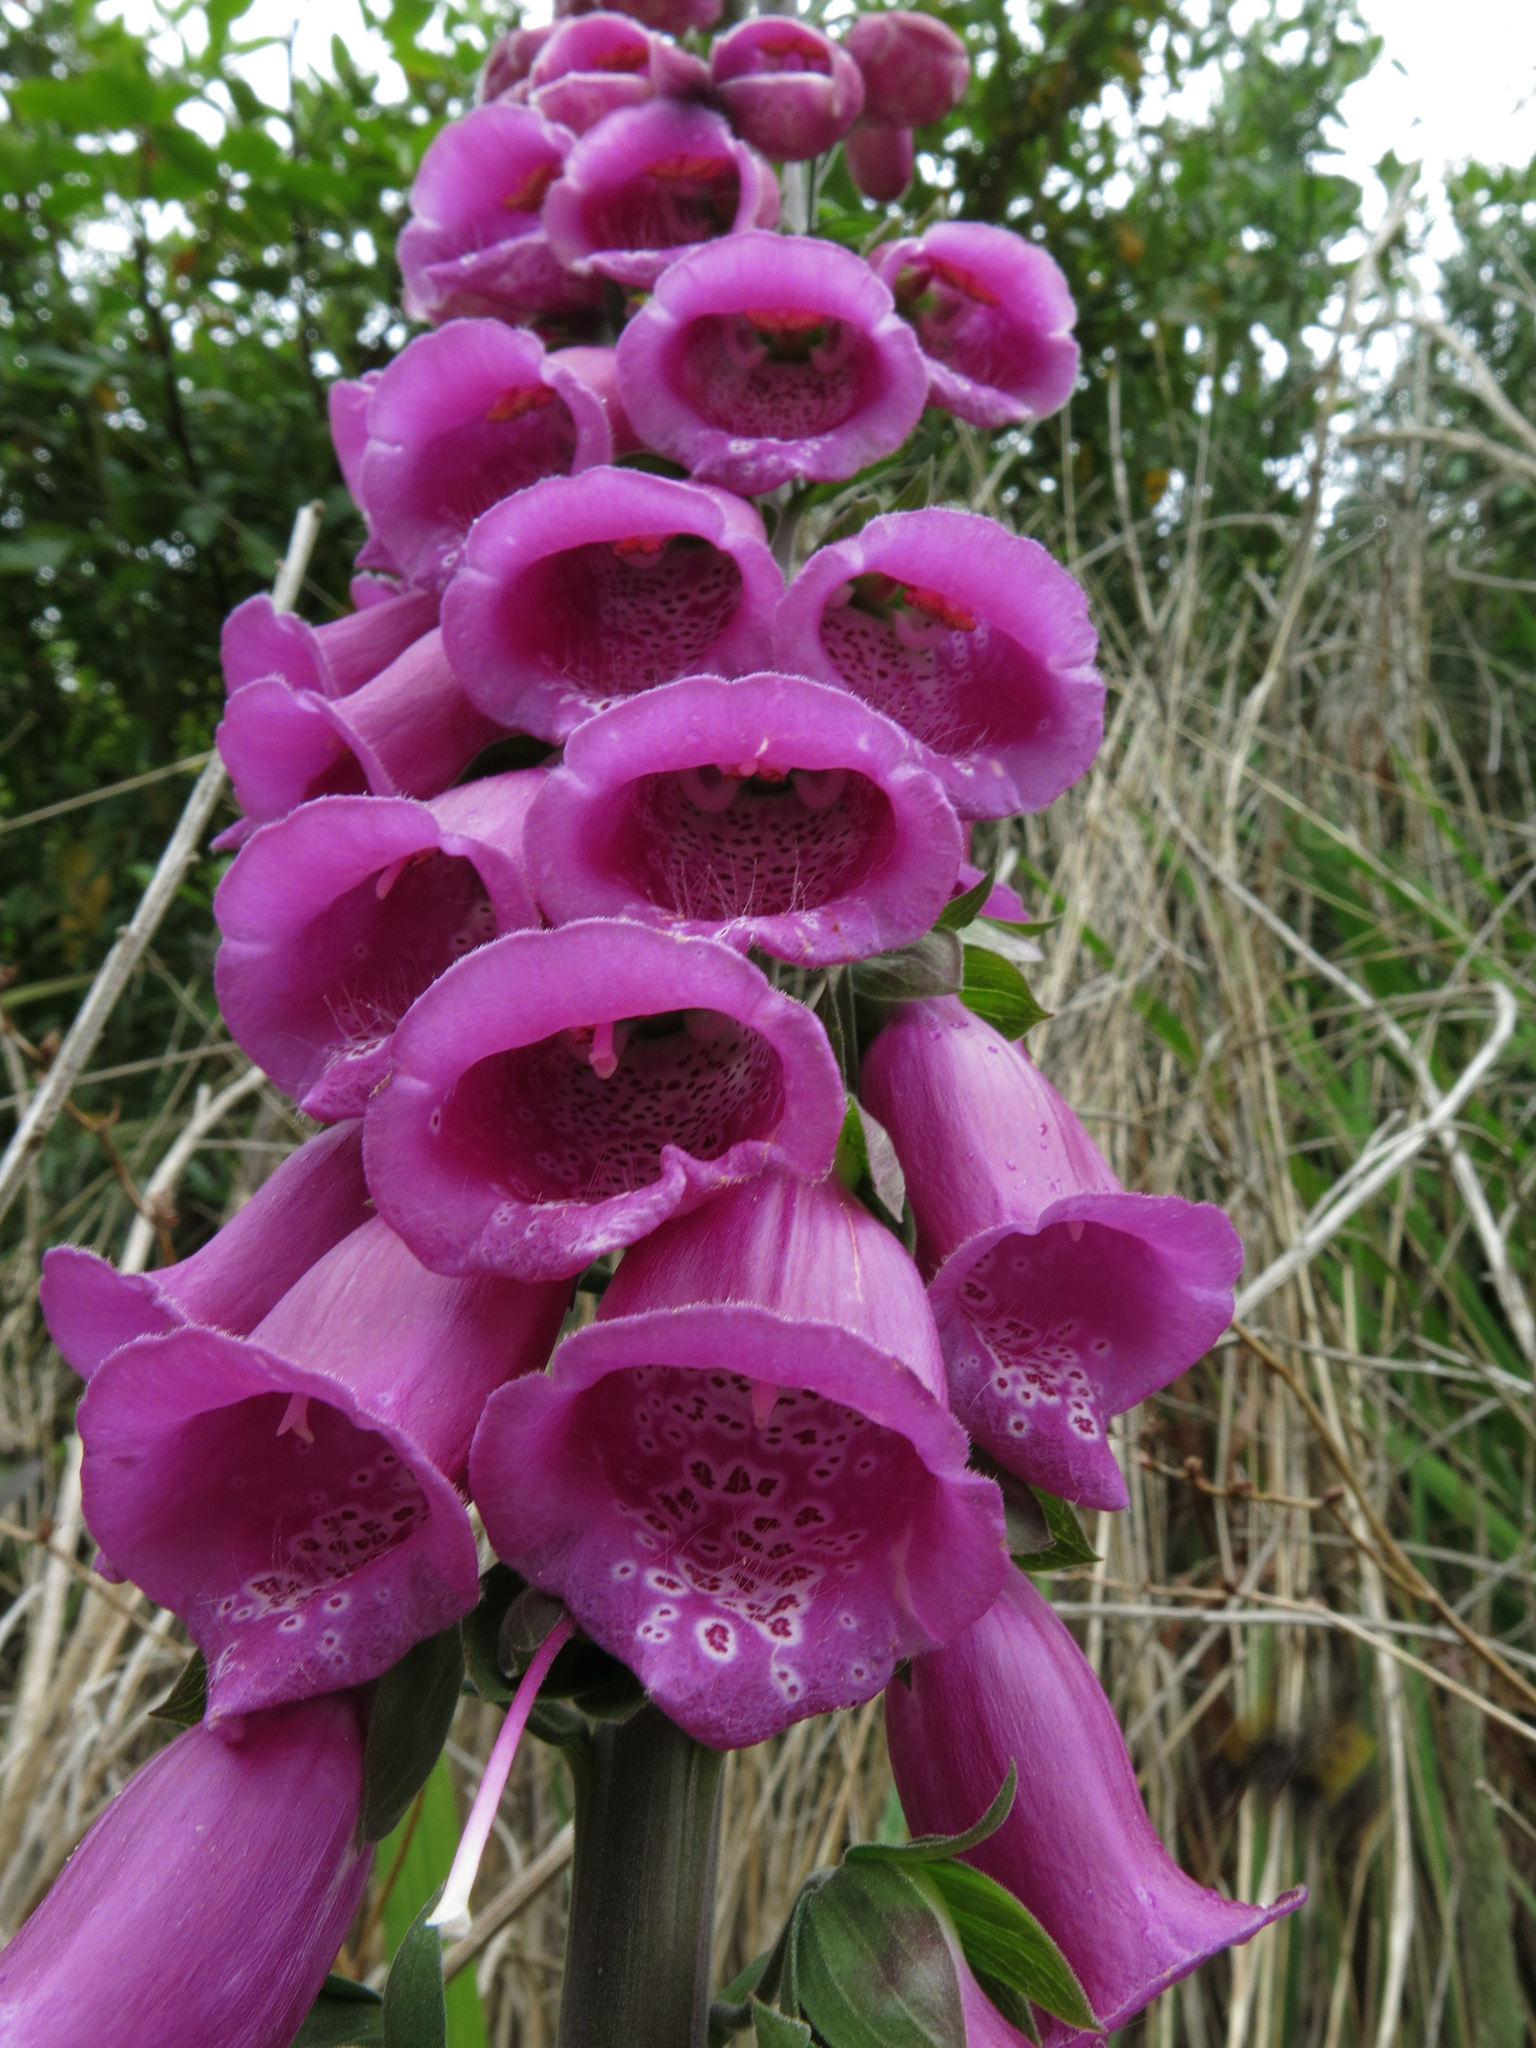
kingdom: Plantae
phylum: Tracheophyta
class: Magnoliopsida
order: Lamiales
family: Plantaginaceae
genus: Digitalis
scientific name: Digitalis purpurea
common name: Foxglove
